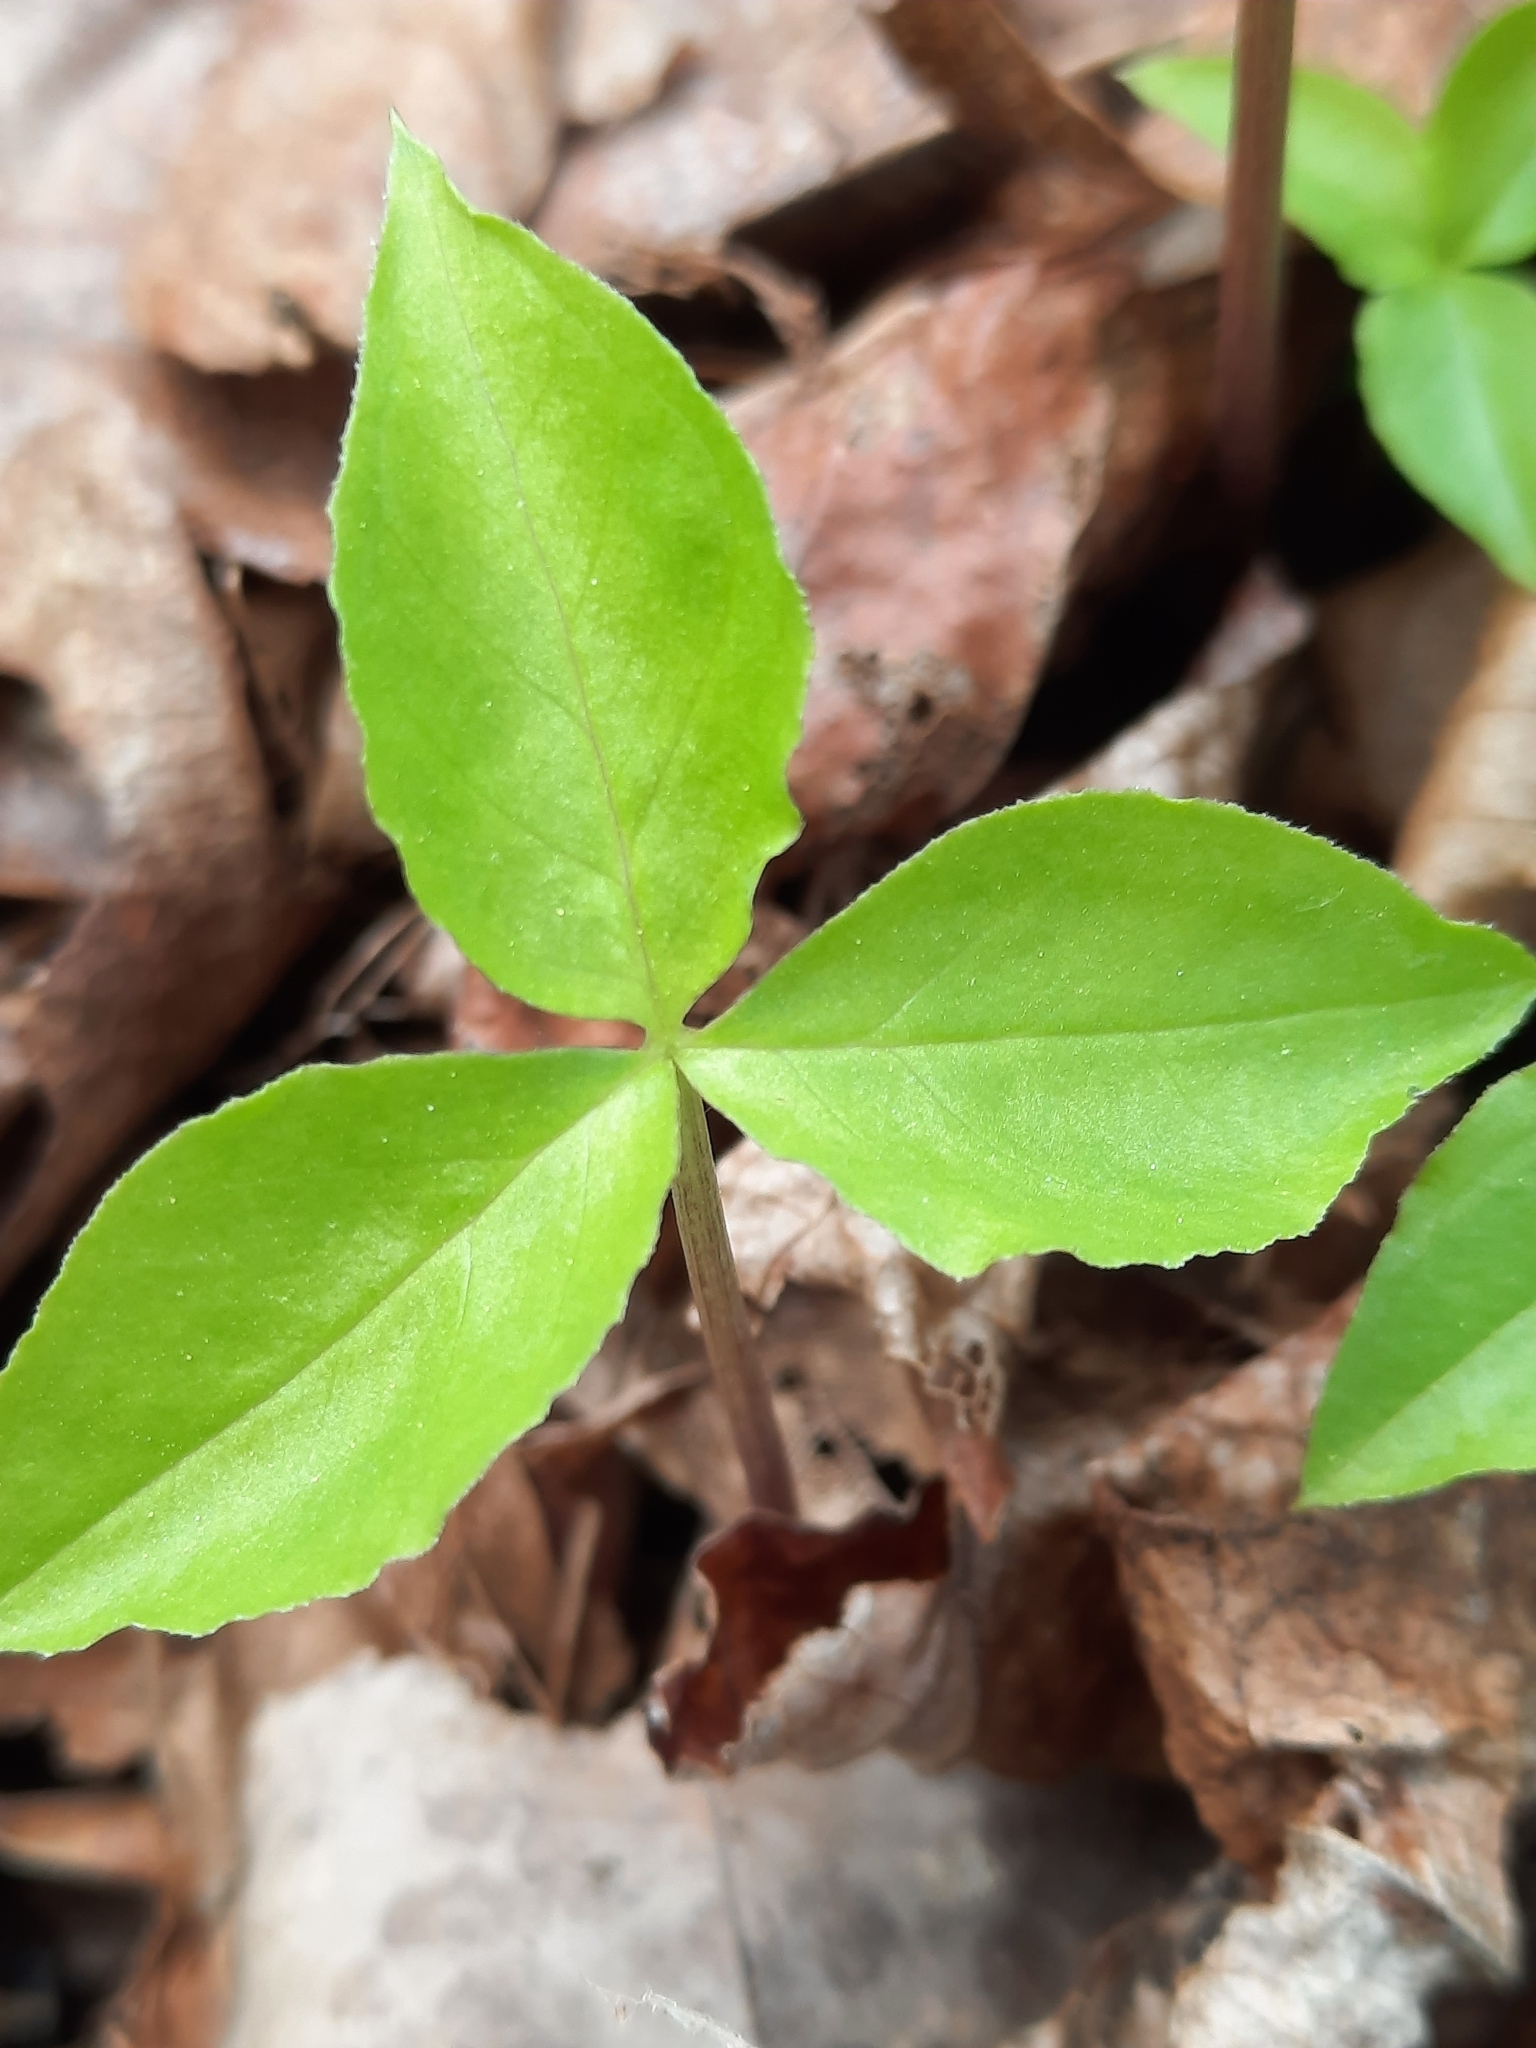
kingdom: Plantae
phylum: Tracheophyta
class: Liliopsida
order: Alismatales
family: Araceae
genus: Arisaema
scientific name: Arisaema triphyllum
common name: Jack-in-the-pulpit
